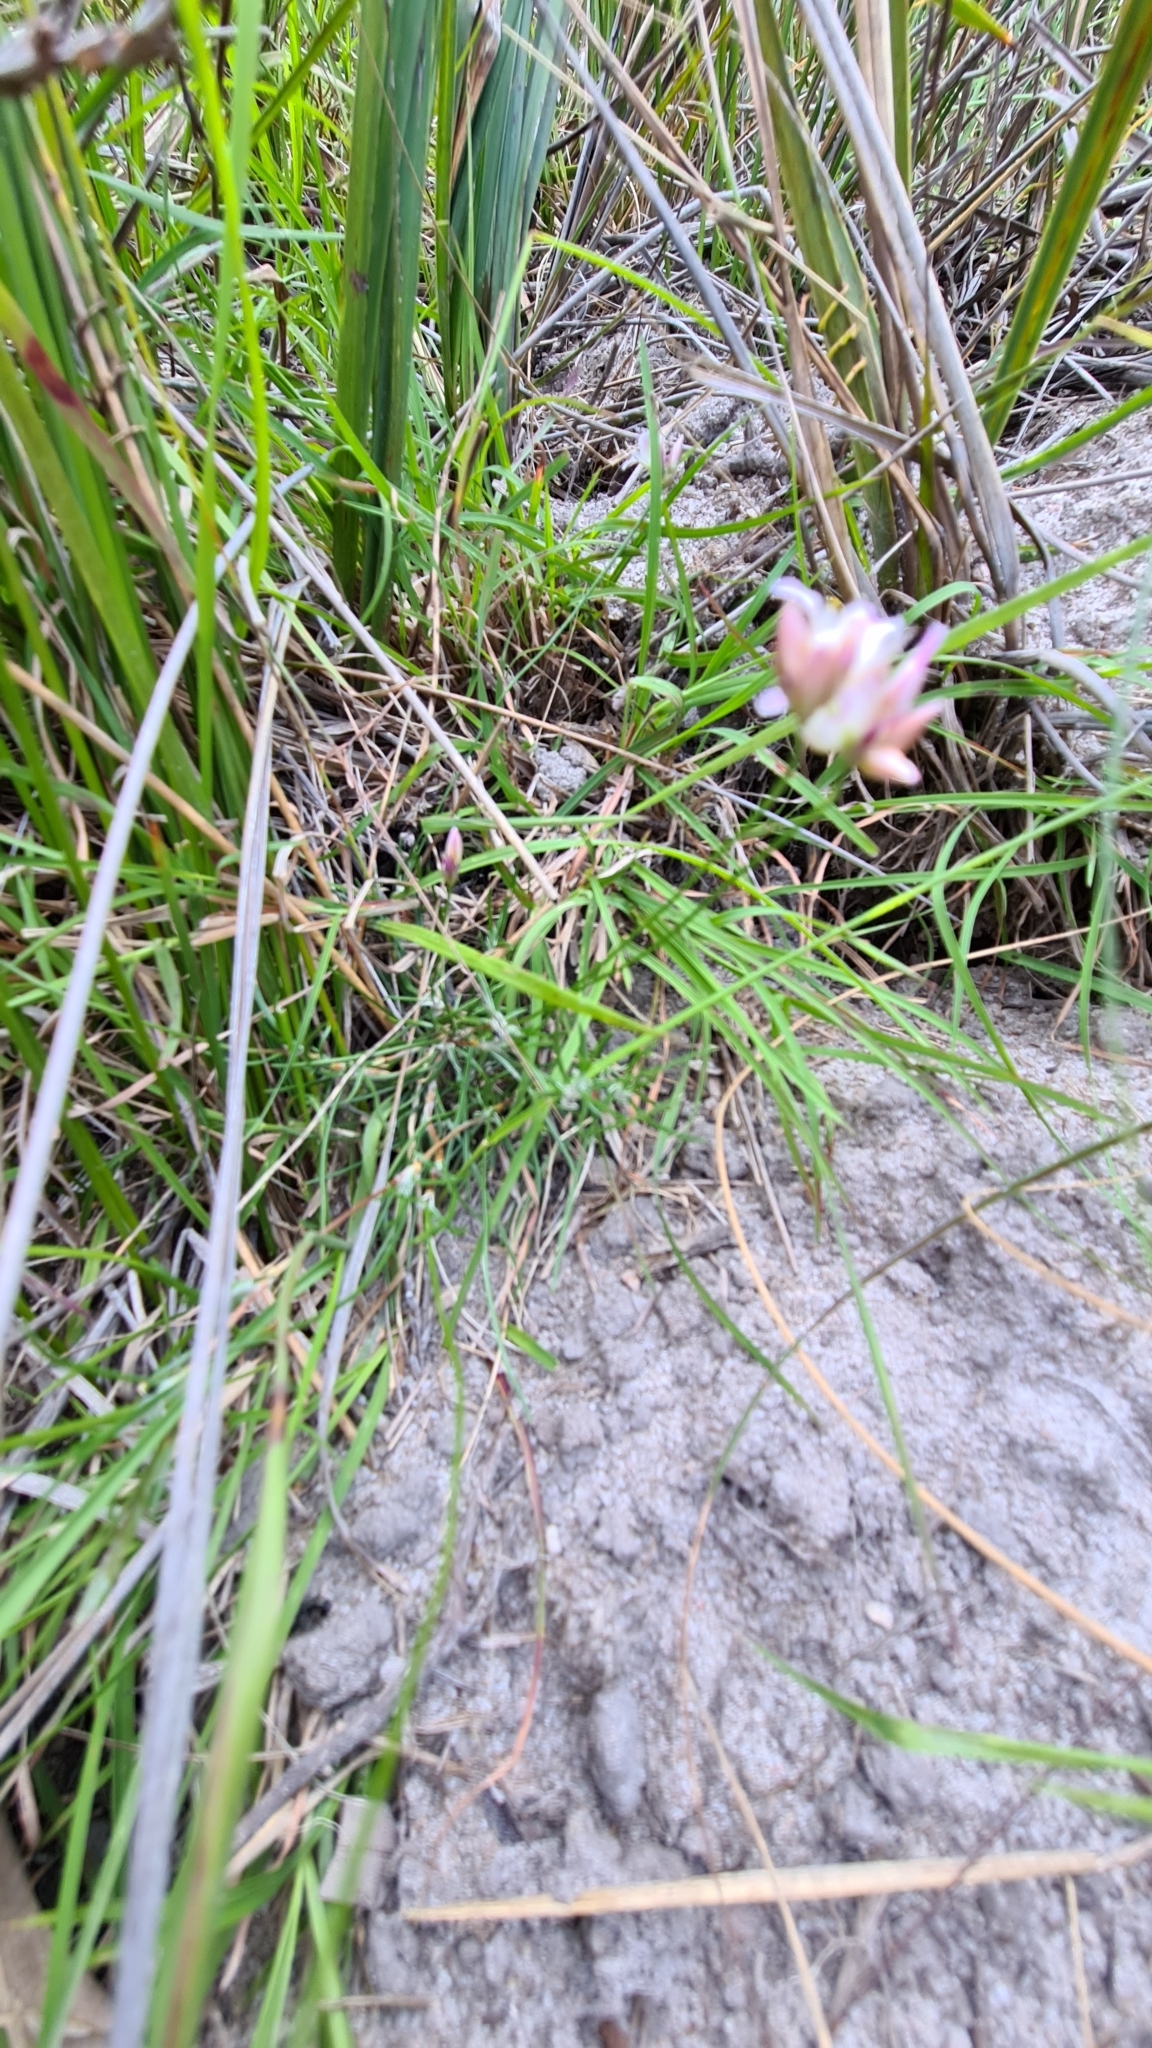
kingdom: Plantae
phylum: Tracheophyta
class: Liliopsida
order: Asparagales
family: Asparagaceae
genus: Laxmannia
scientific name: Laxmannia gracilis
